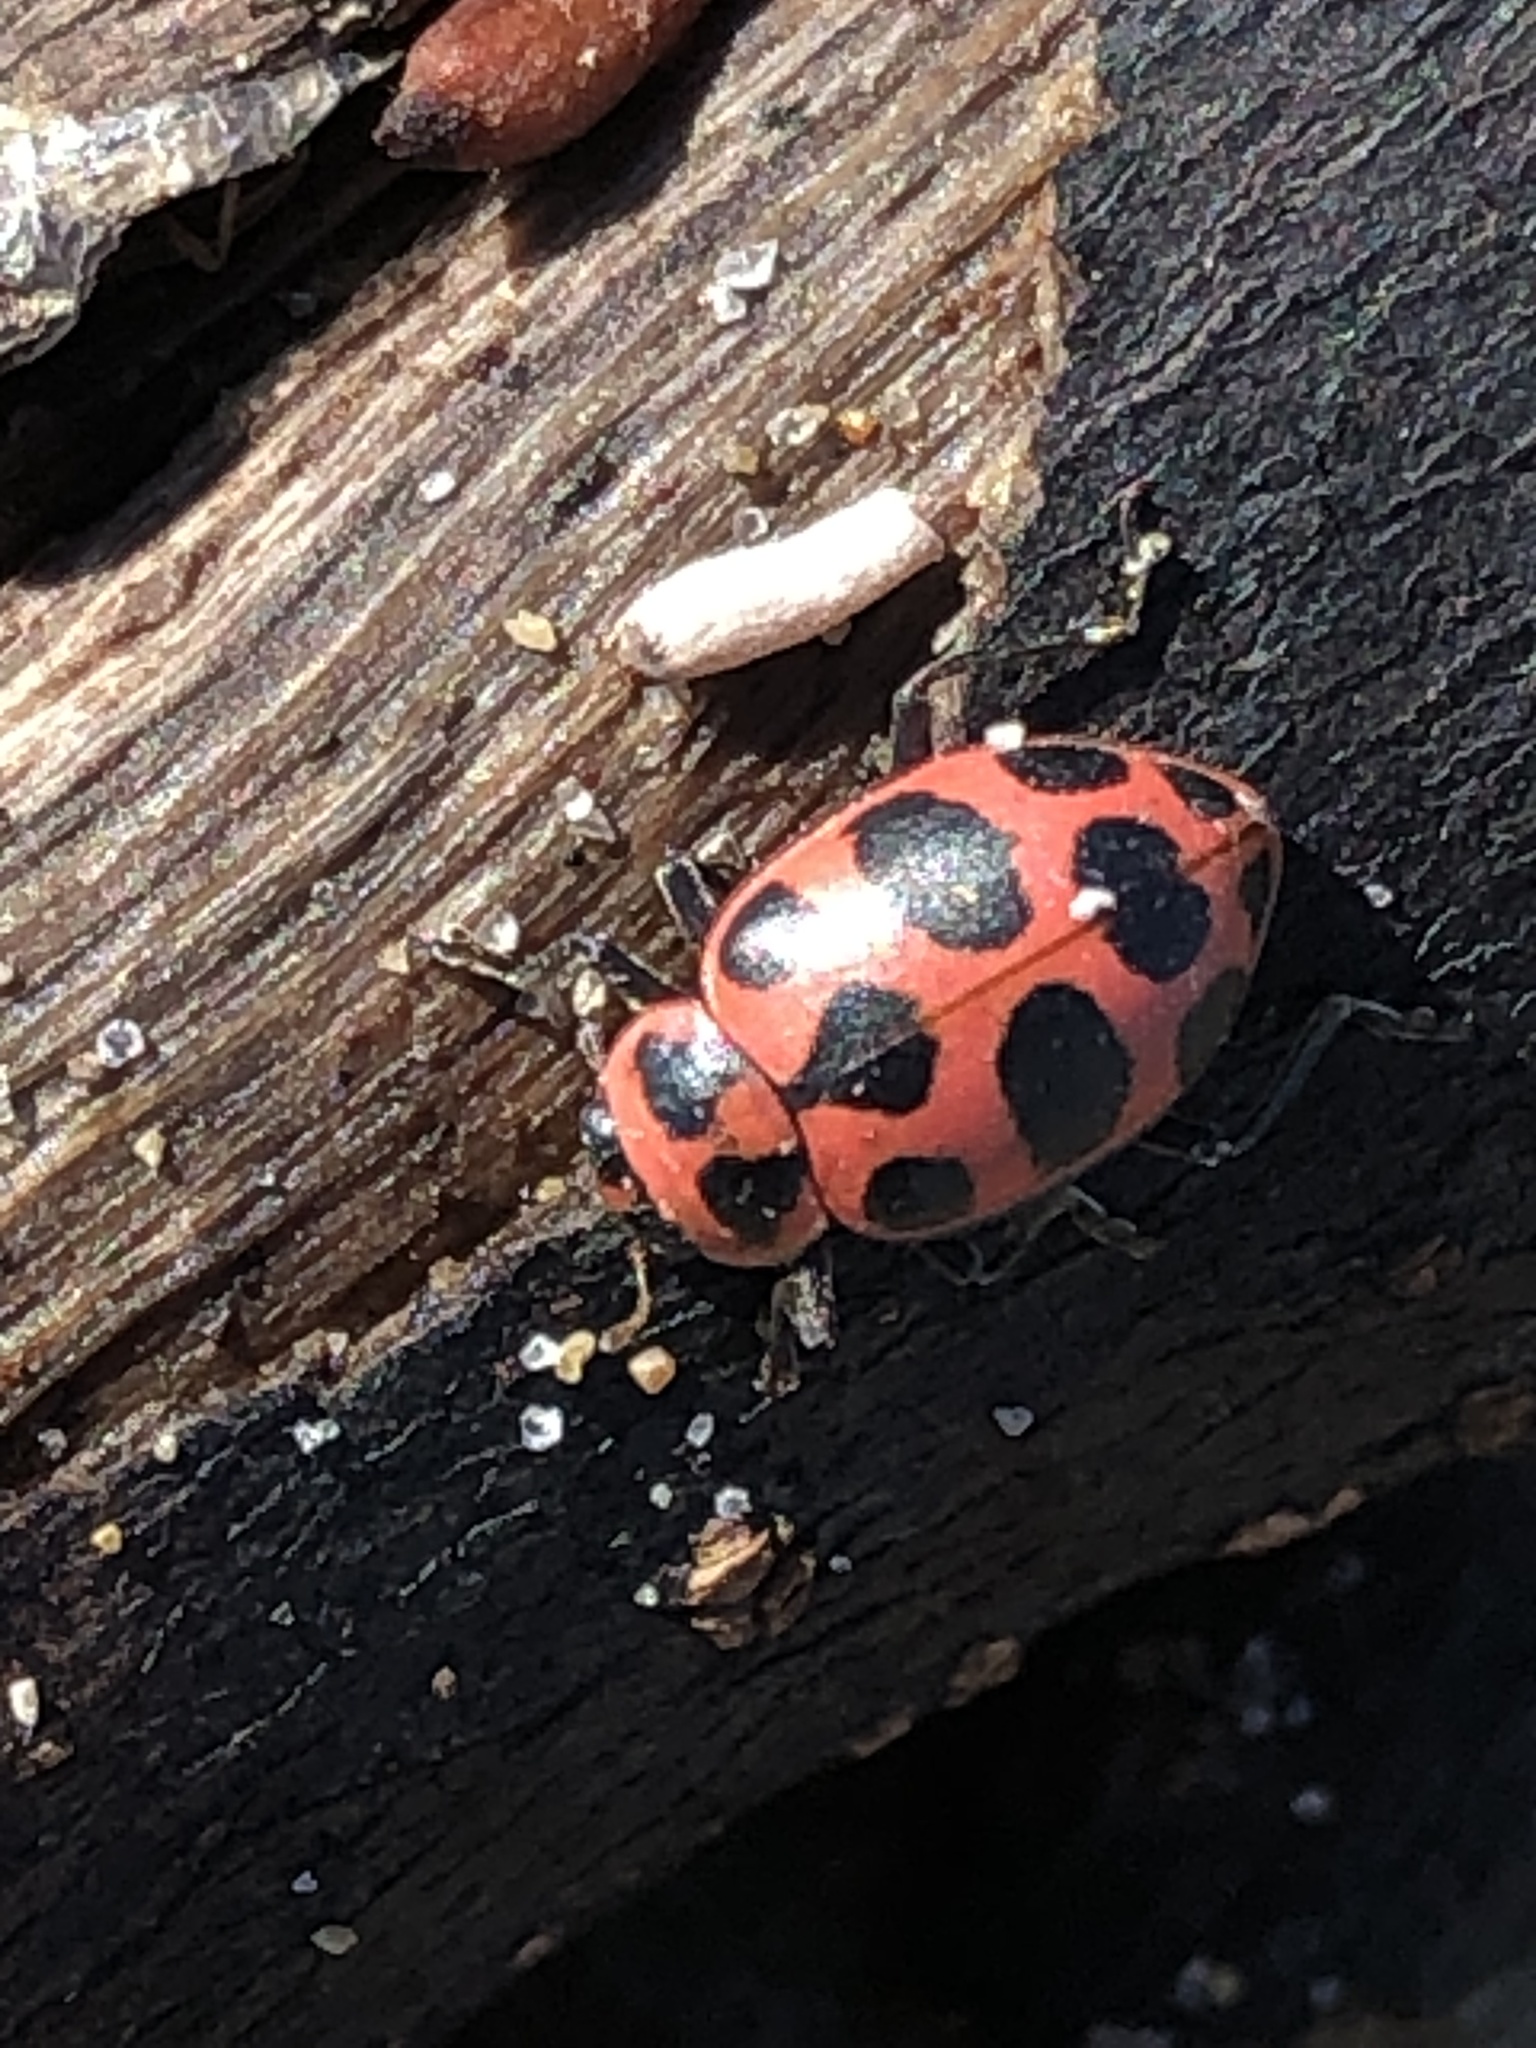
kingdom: Animalia
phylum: Arthropoda
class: Insecta
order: Coleoptera
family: Coccinellidae
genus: Coleomegilla
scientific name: Coleomegilla maculata
